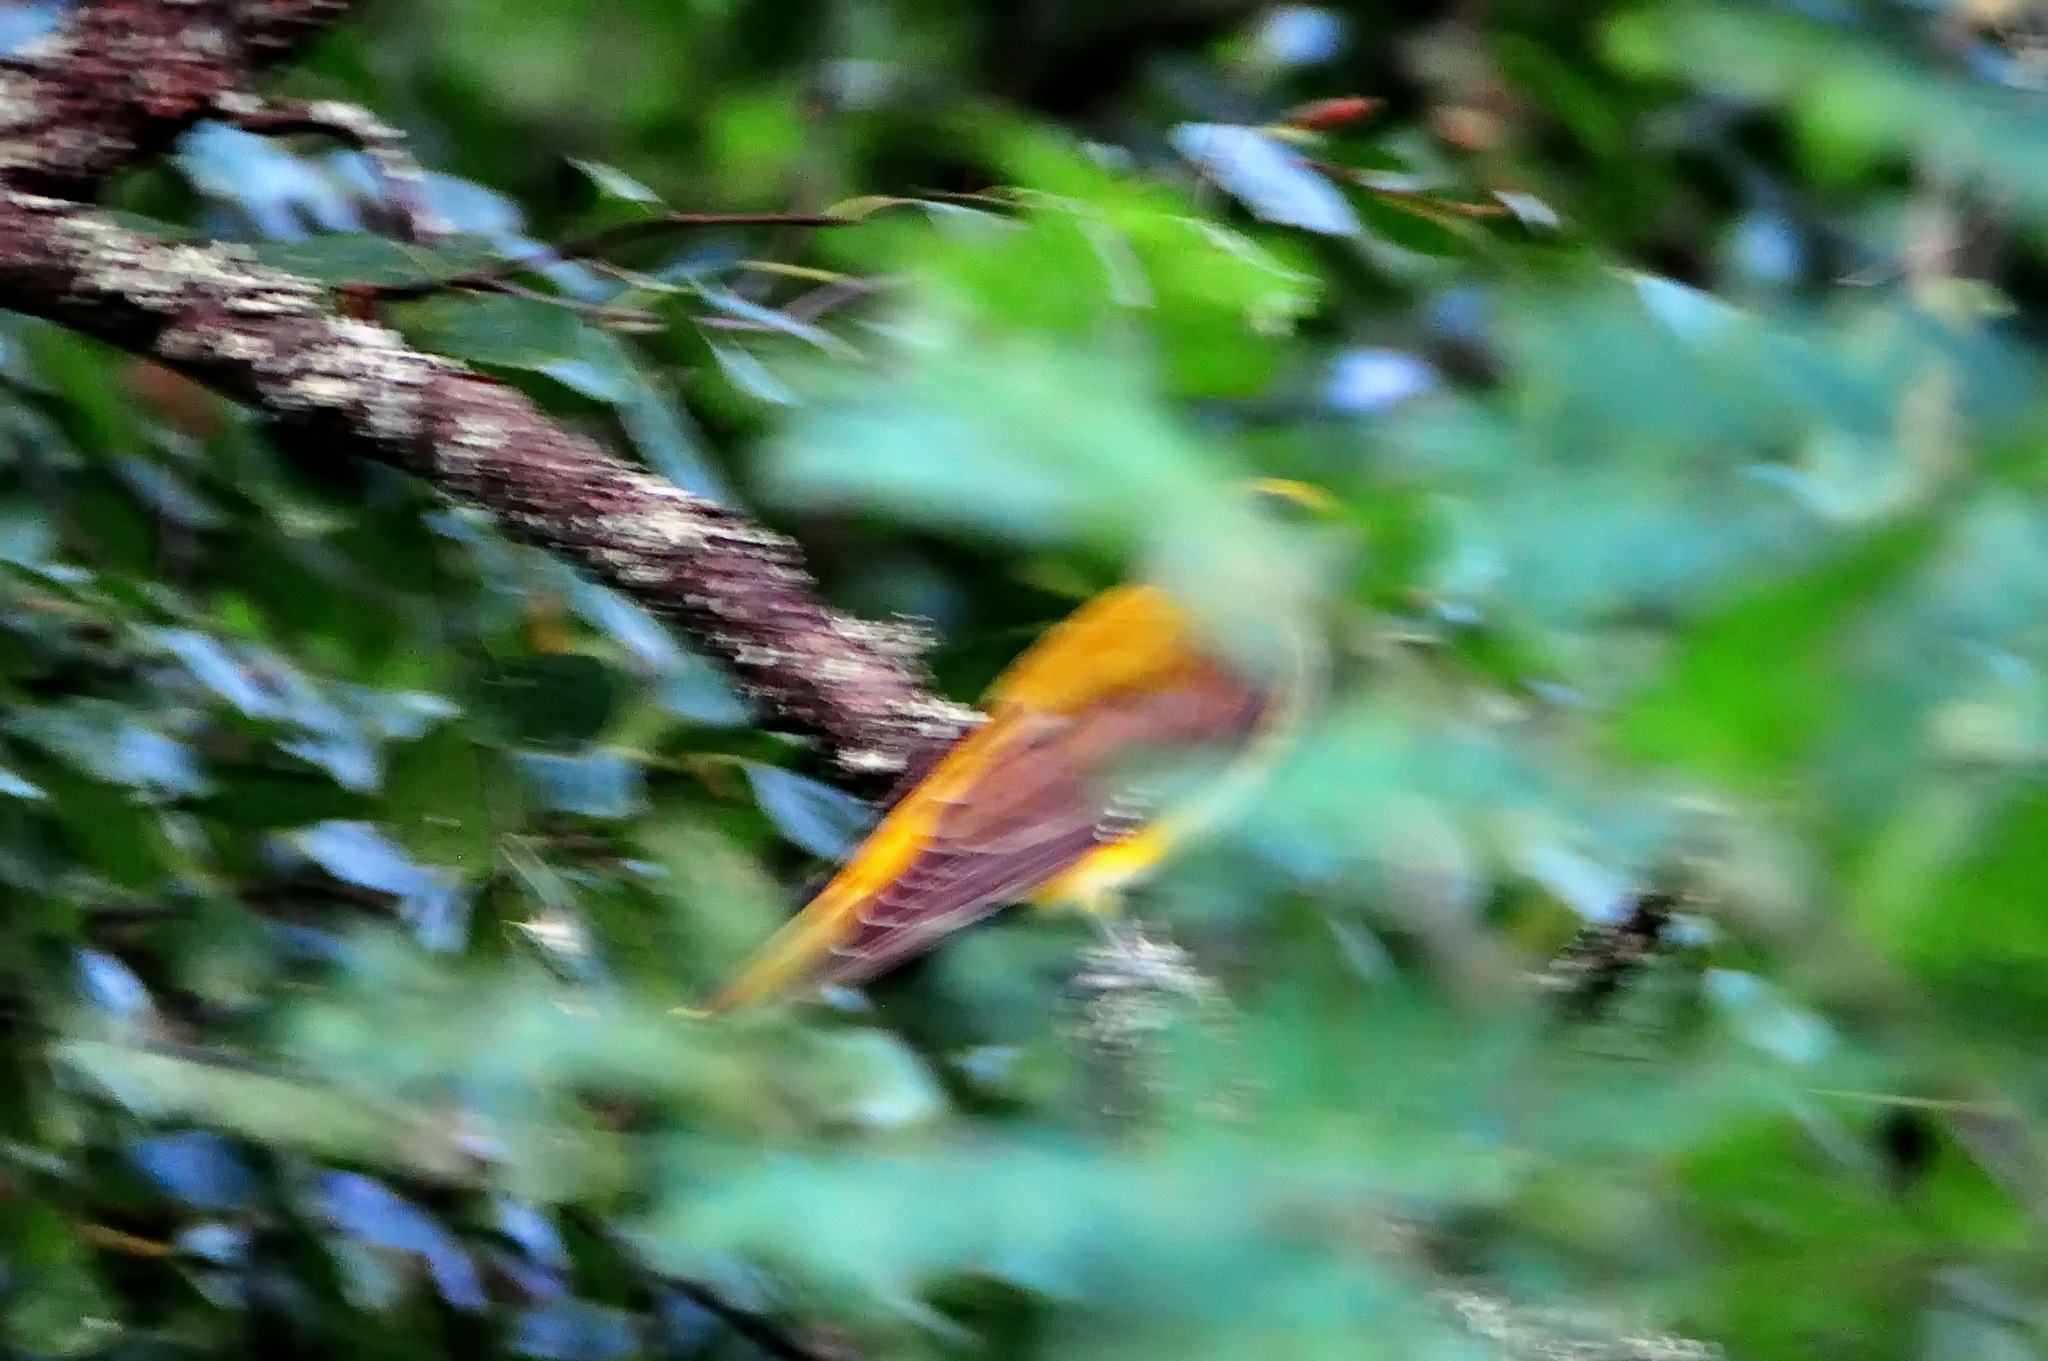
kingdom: Animalia
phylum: Chordata
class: Aves
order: Passeriformes
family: Oriolidae
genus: Oriolus
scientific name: Oriolus oriolus
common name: Eurasian golden oriole
